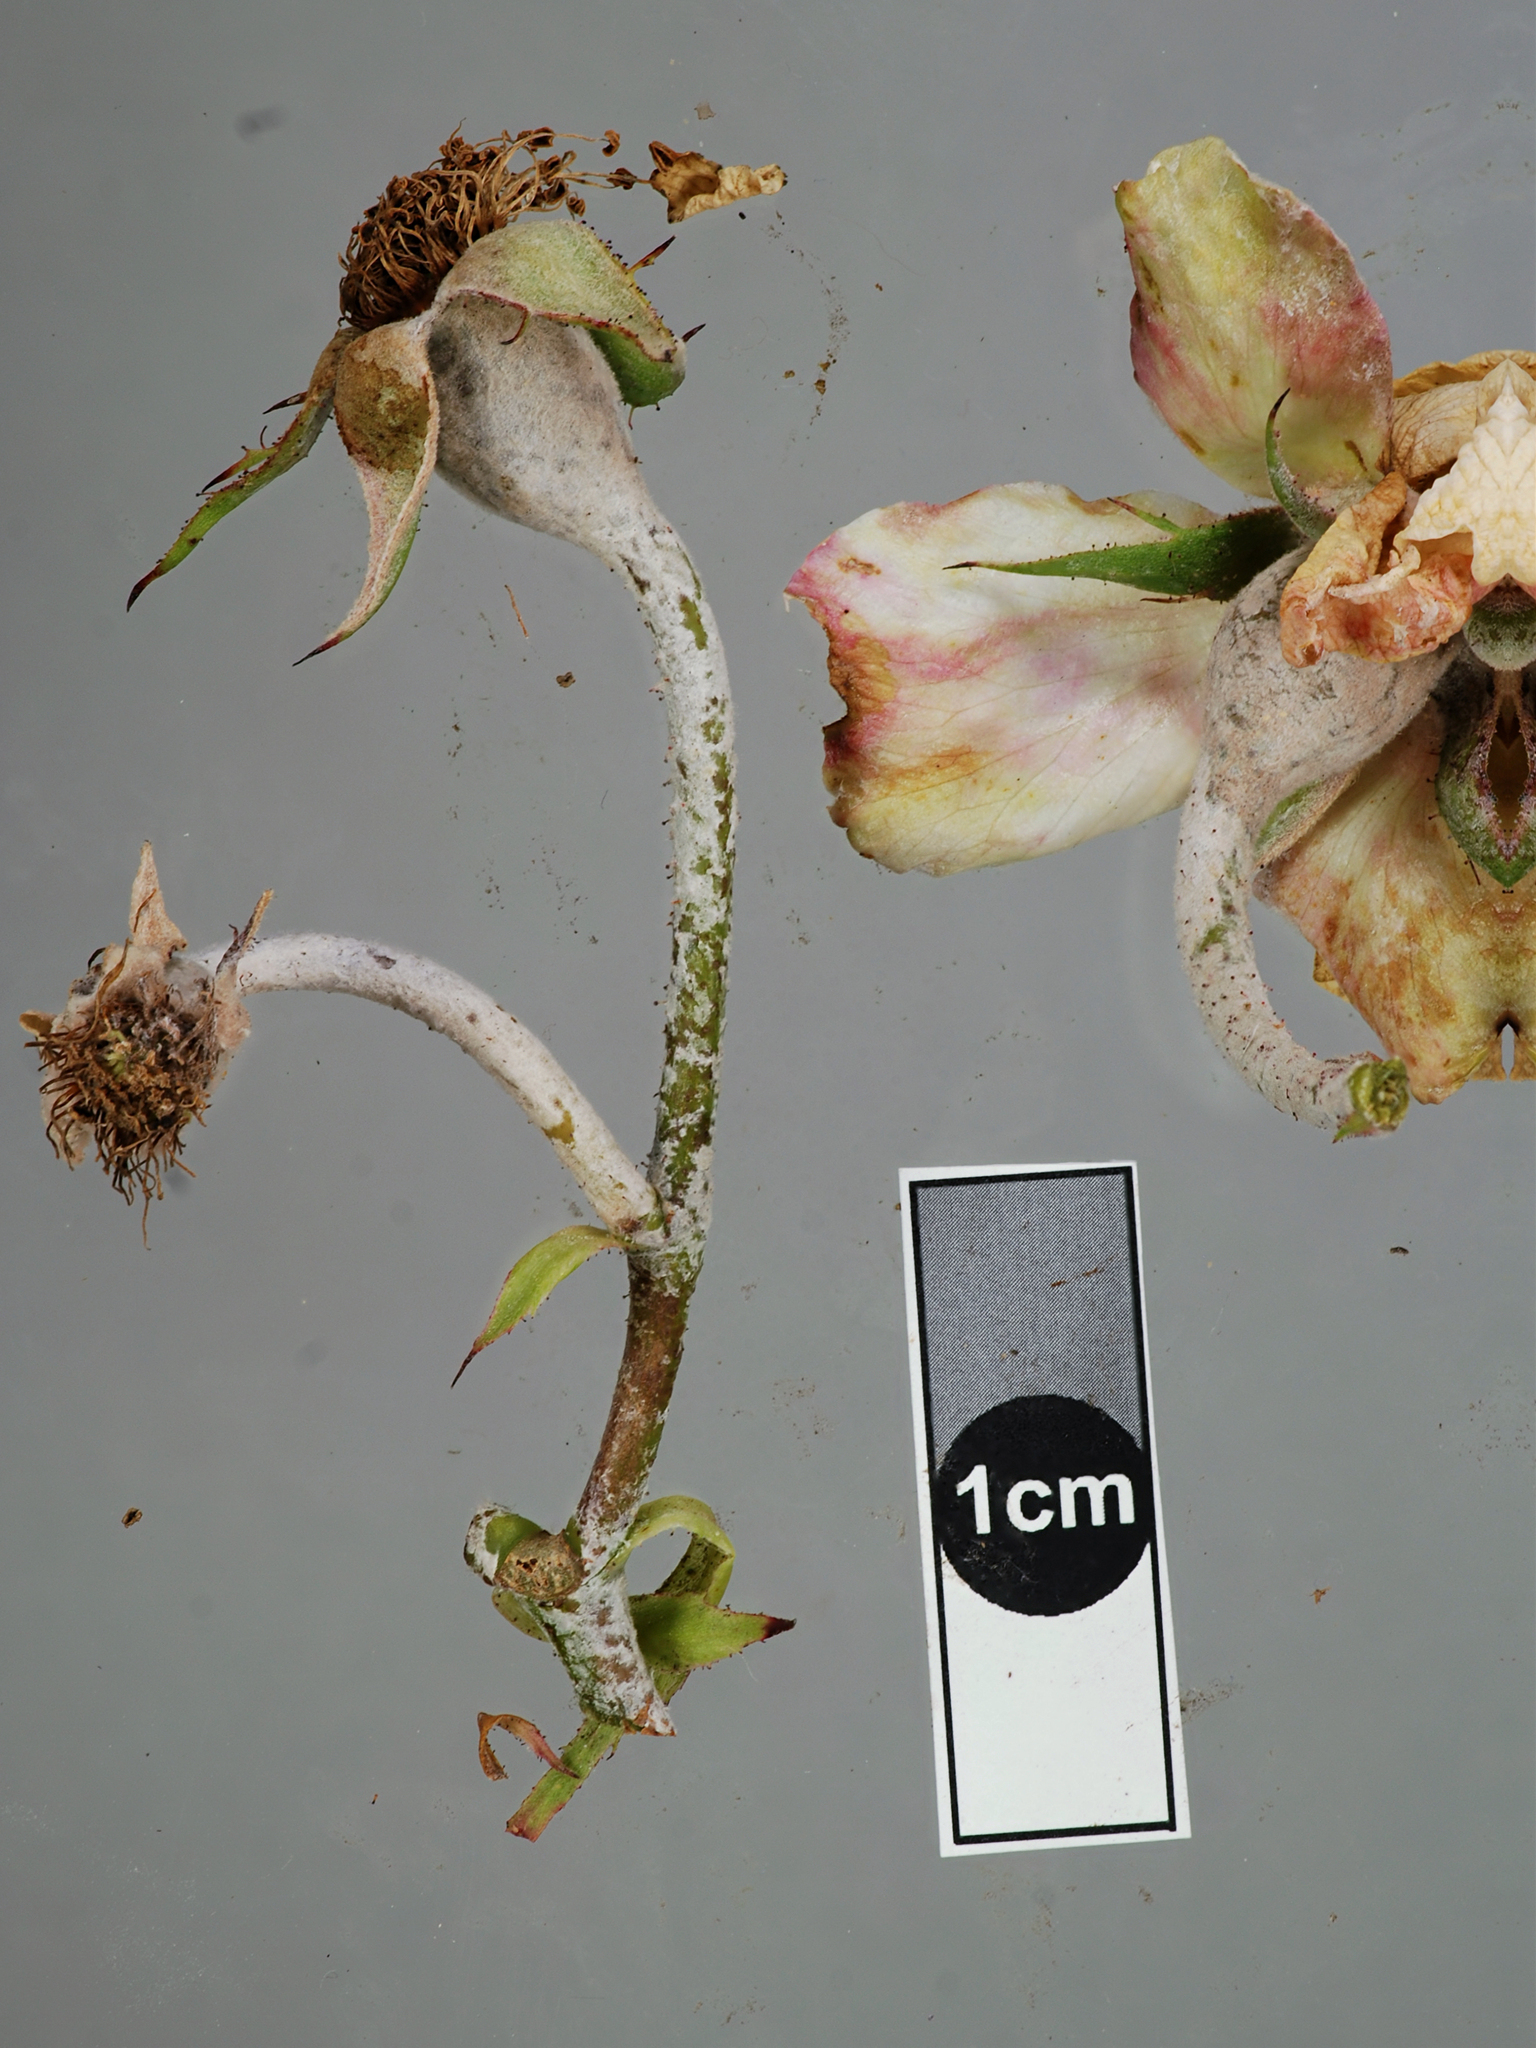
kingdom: Fungi
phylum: Ascomycota
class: Leotiomycetes
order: Helotiales
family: Erysiphaceae
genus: Podosphaera
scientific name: Podosphaera pannosa
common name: Rose mildew
